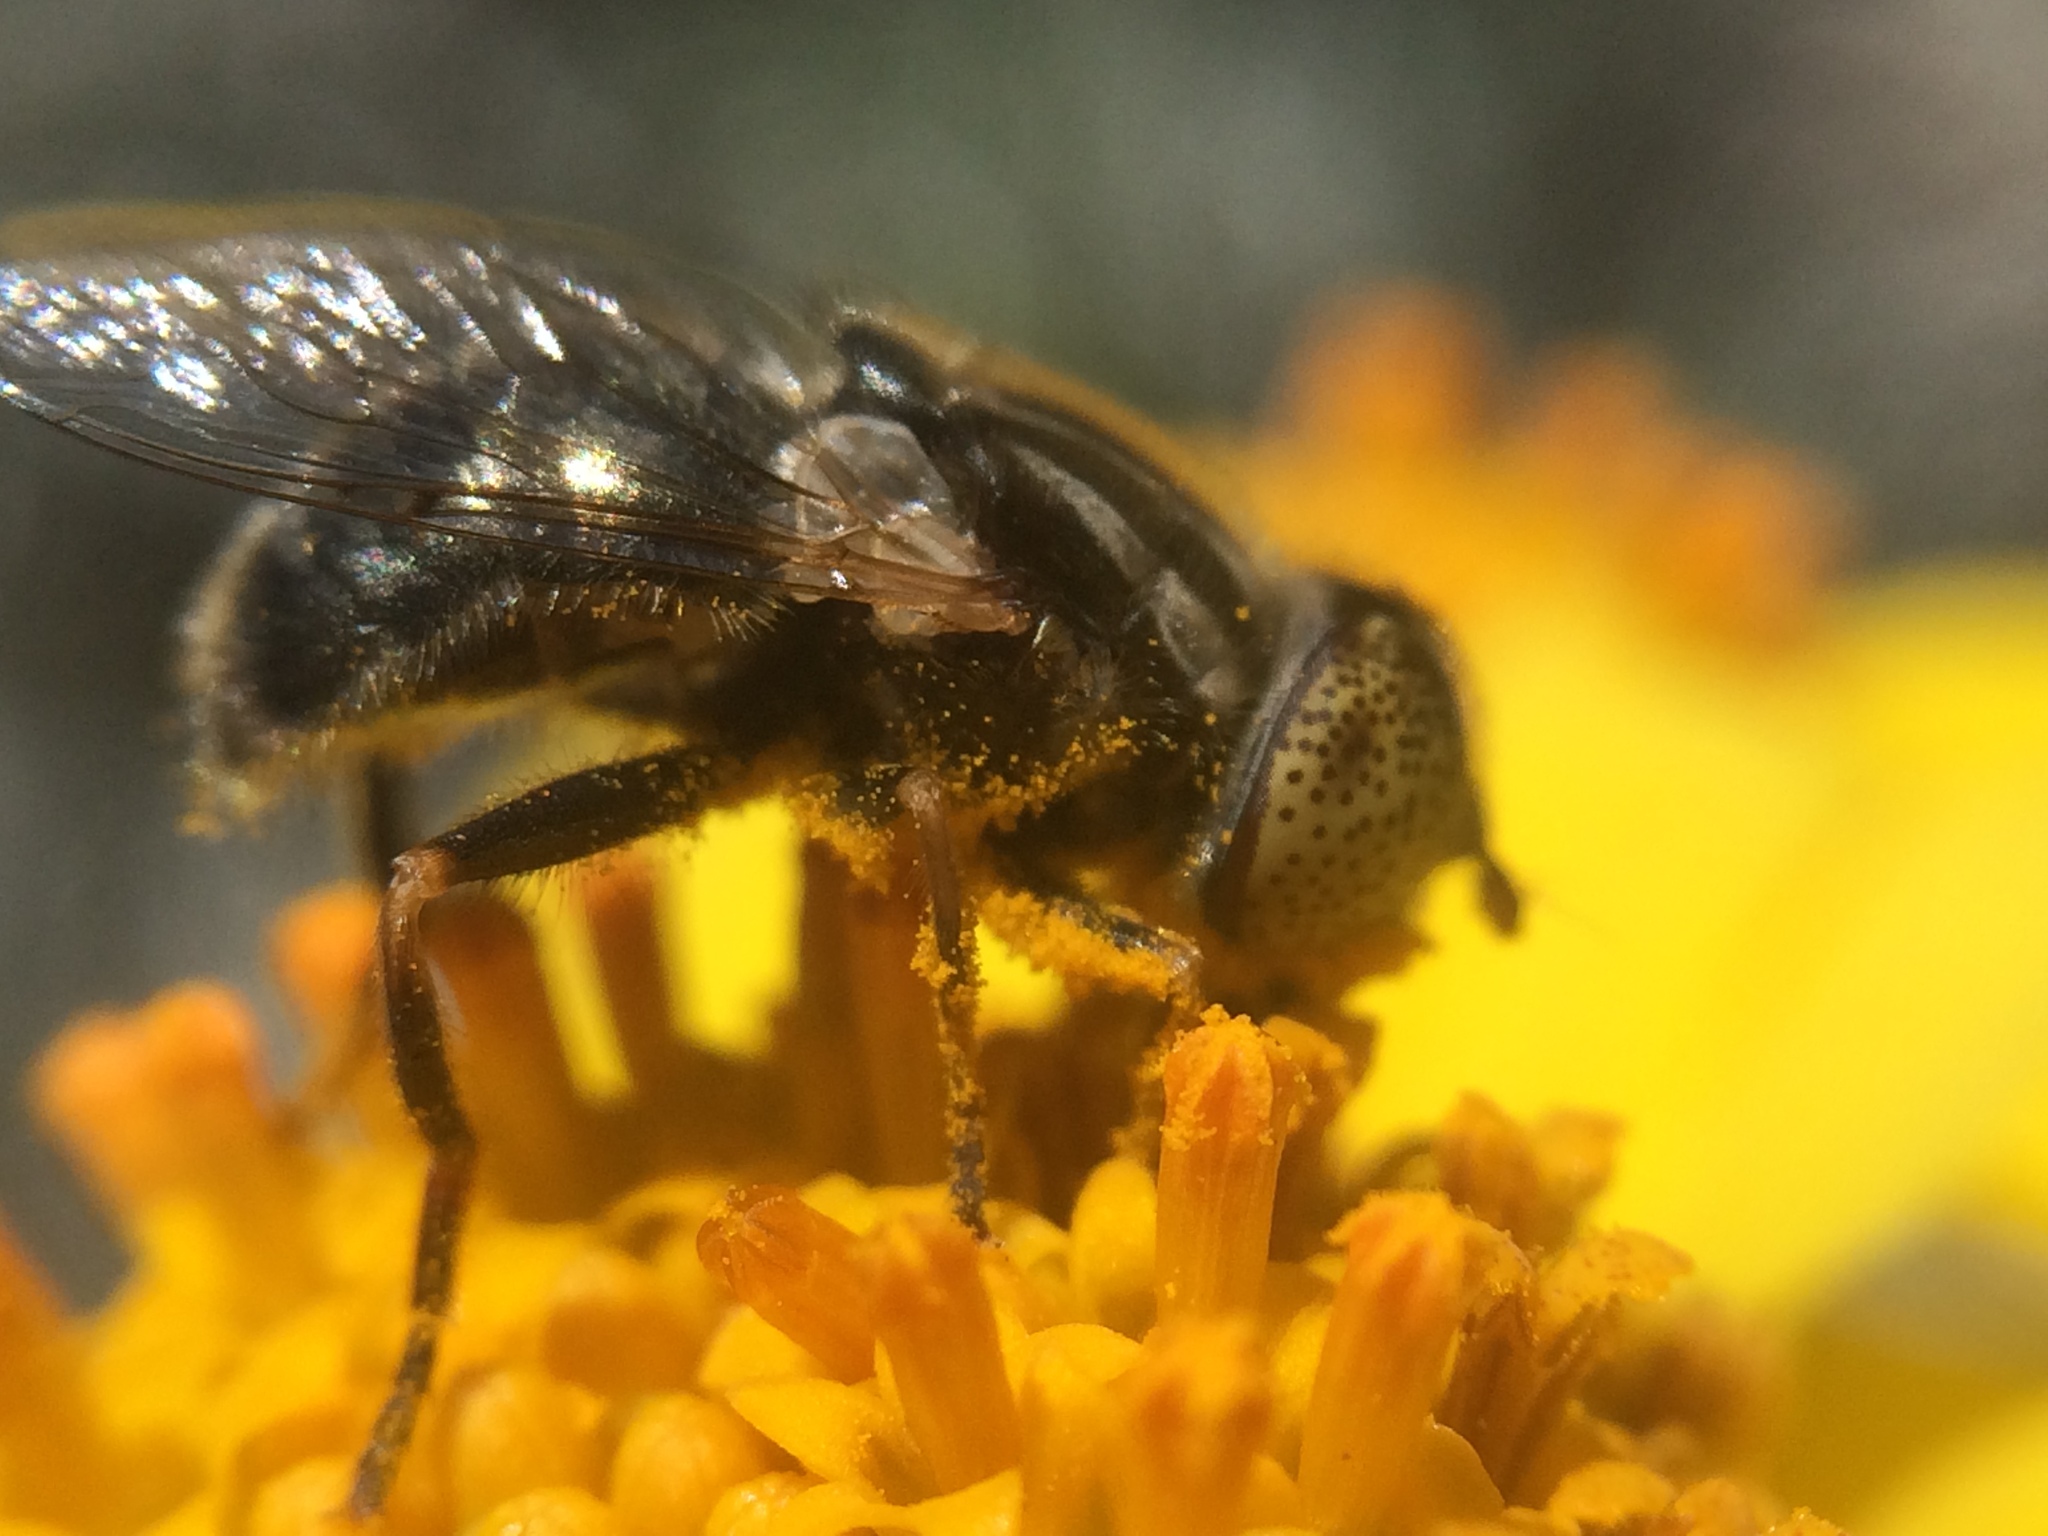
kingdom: Animalia
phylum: Arthropoda
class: Insecta
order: Diptera
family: Syrphidae
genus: Eristalinus
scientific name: Eristalinus aeneus
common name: Syrphid fly
